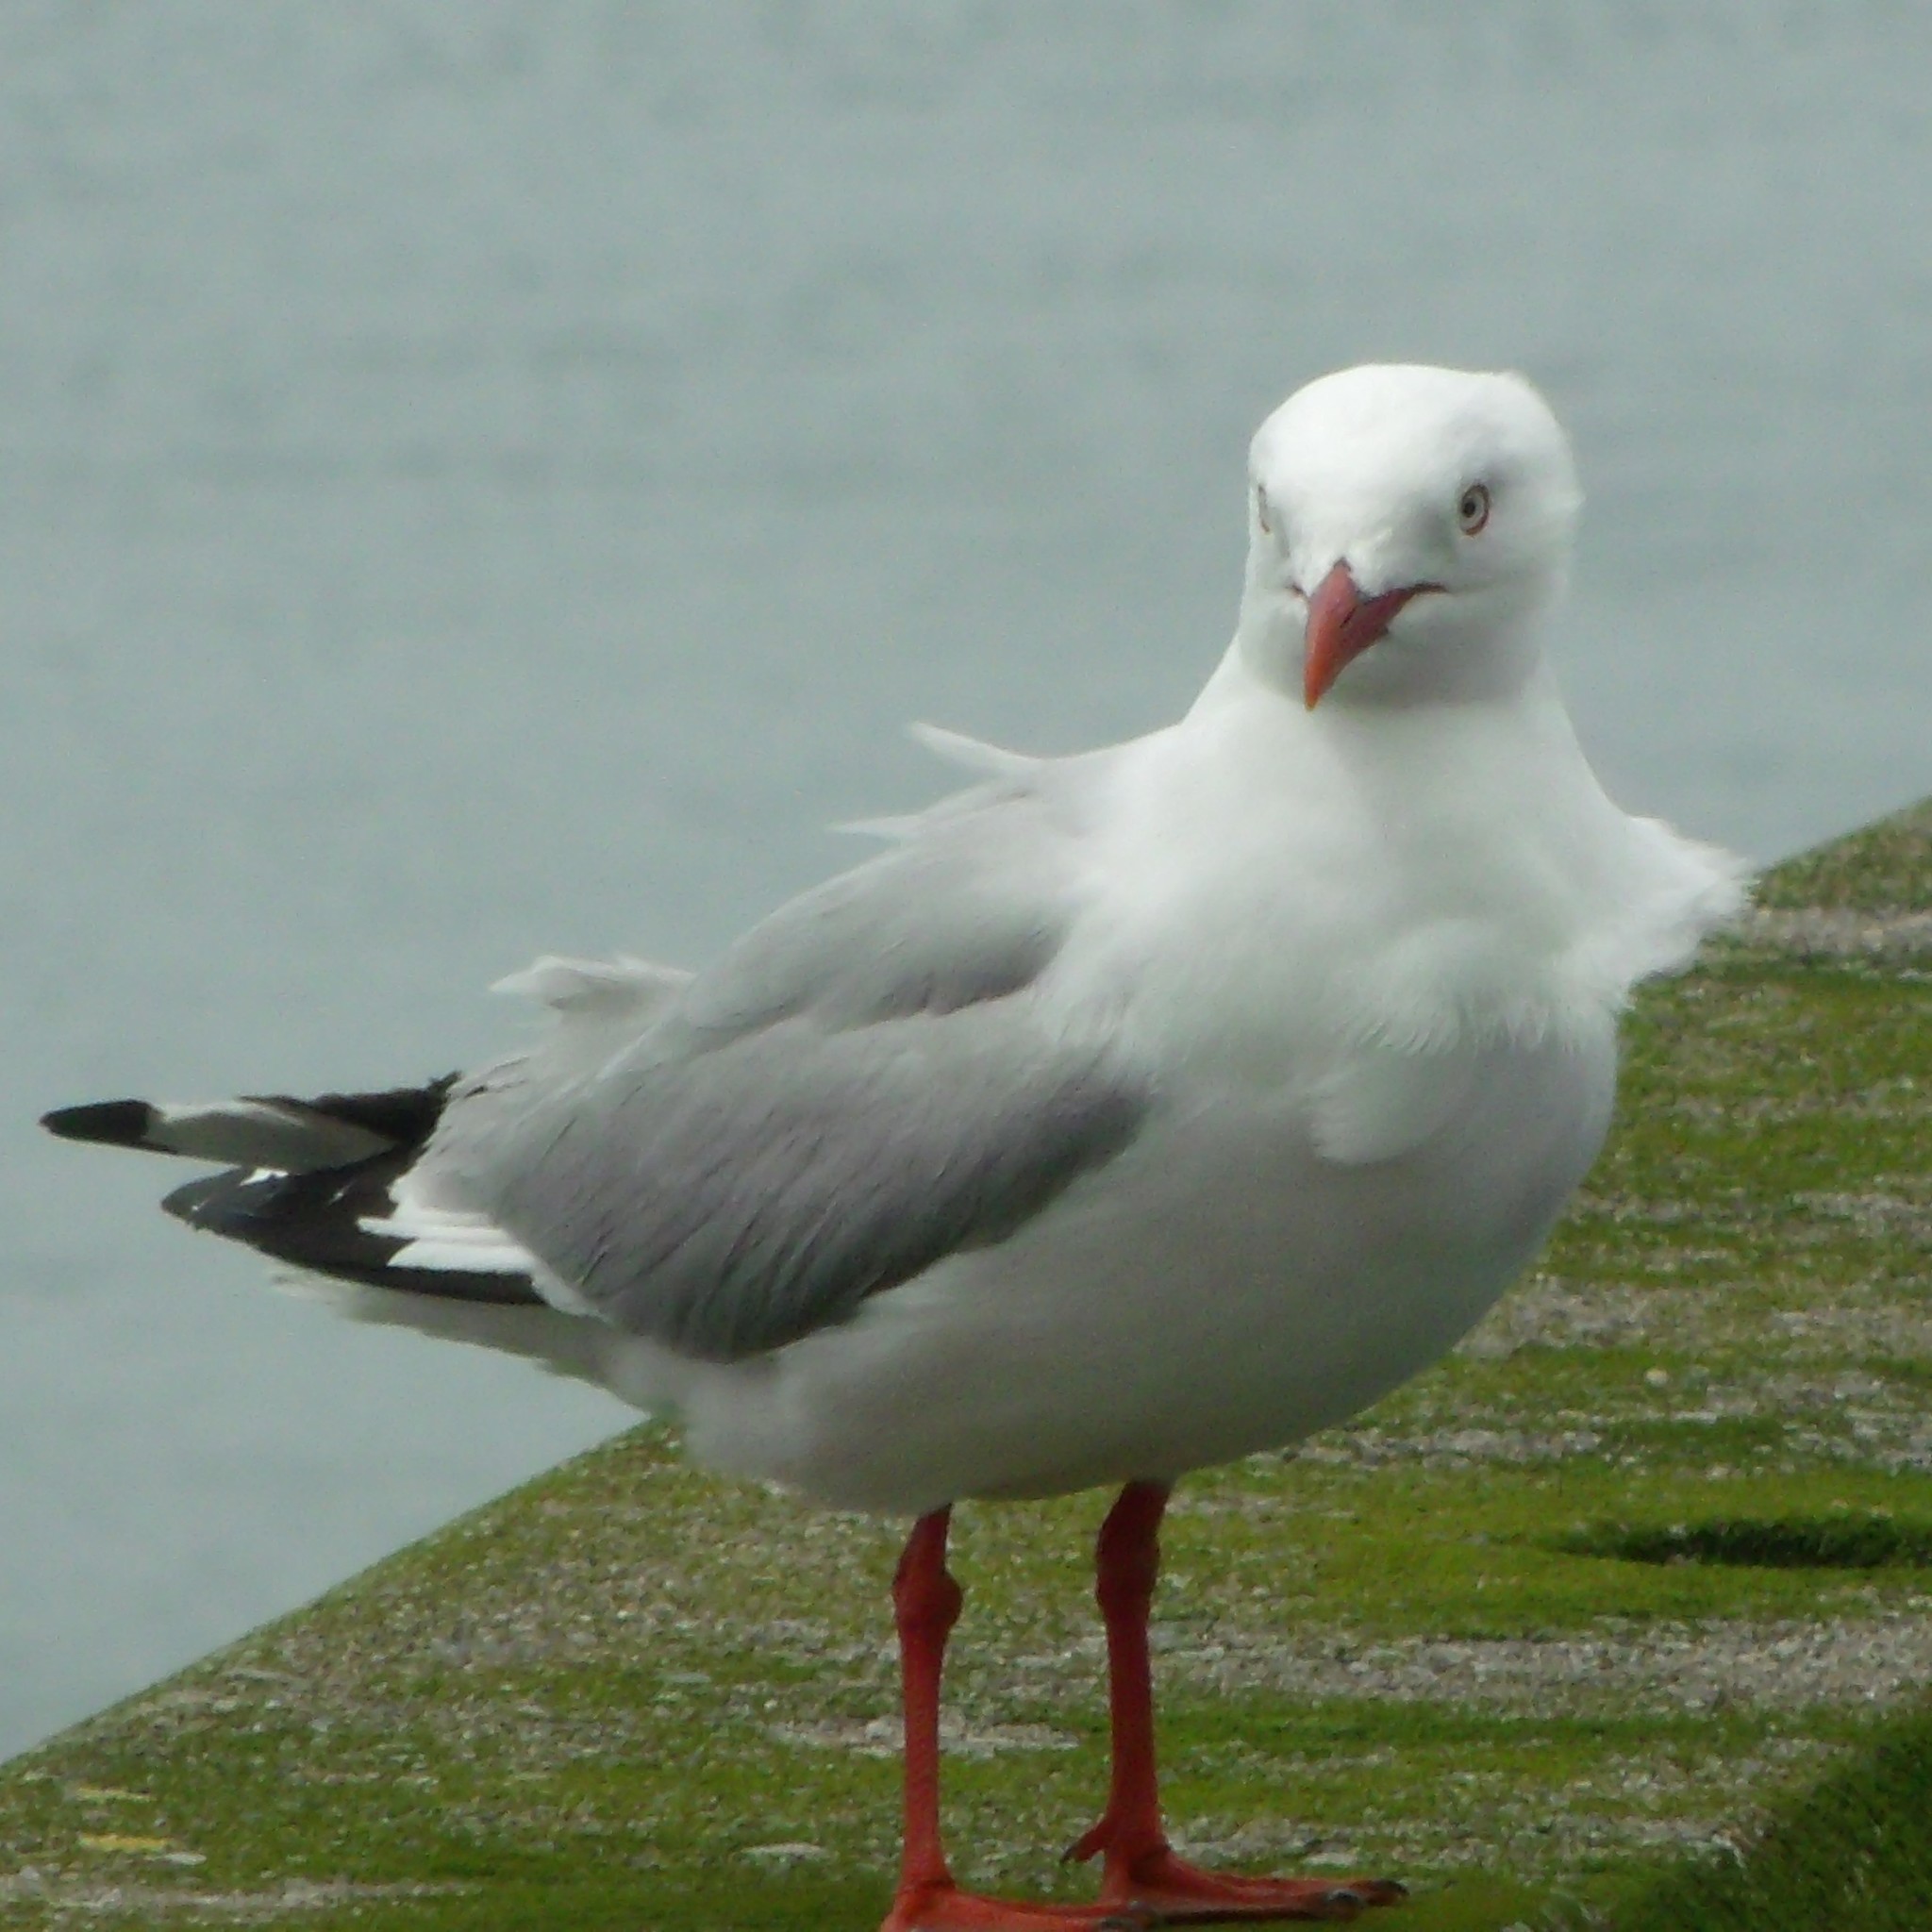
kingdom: Animalia
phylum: Chordata
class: Aves
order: Charadriiformes
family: Laridae
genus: Chroicocephalus
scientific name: Chroicocephalus novaehollandiae
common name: Silver gull
